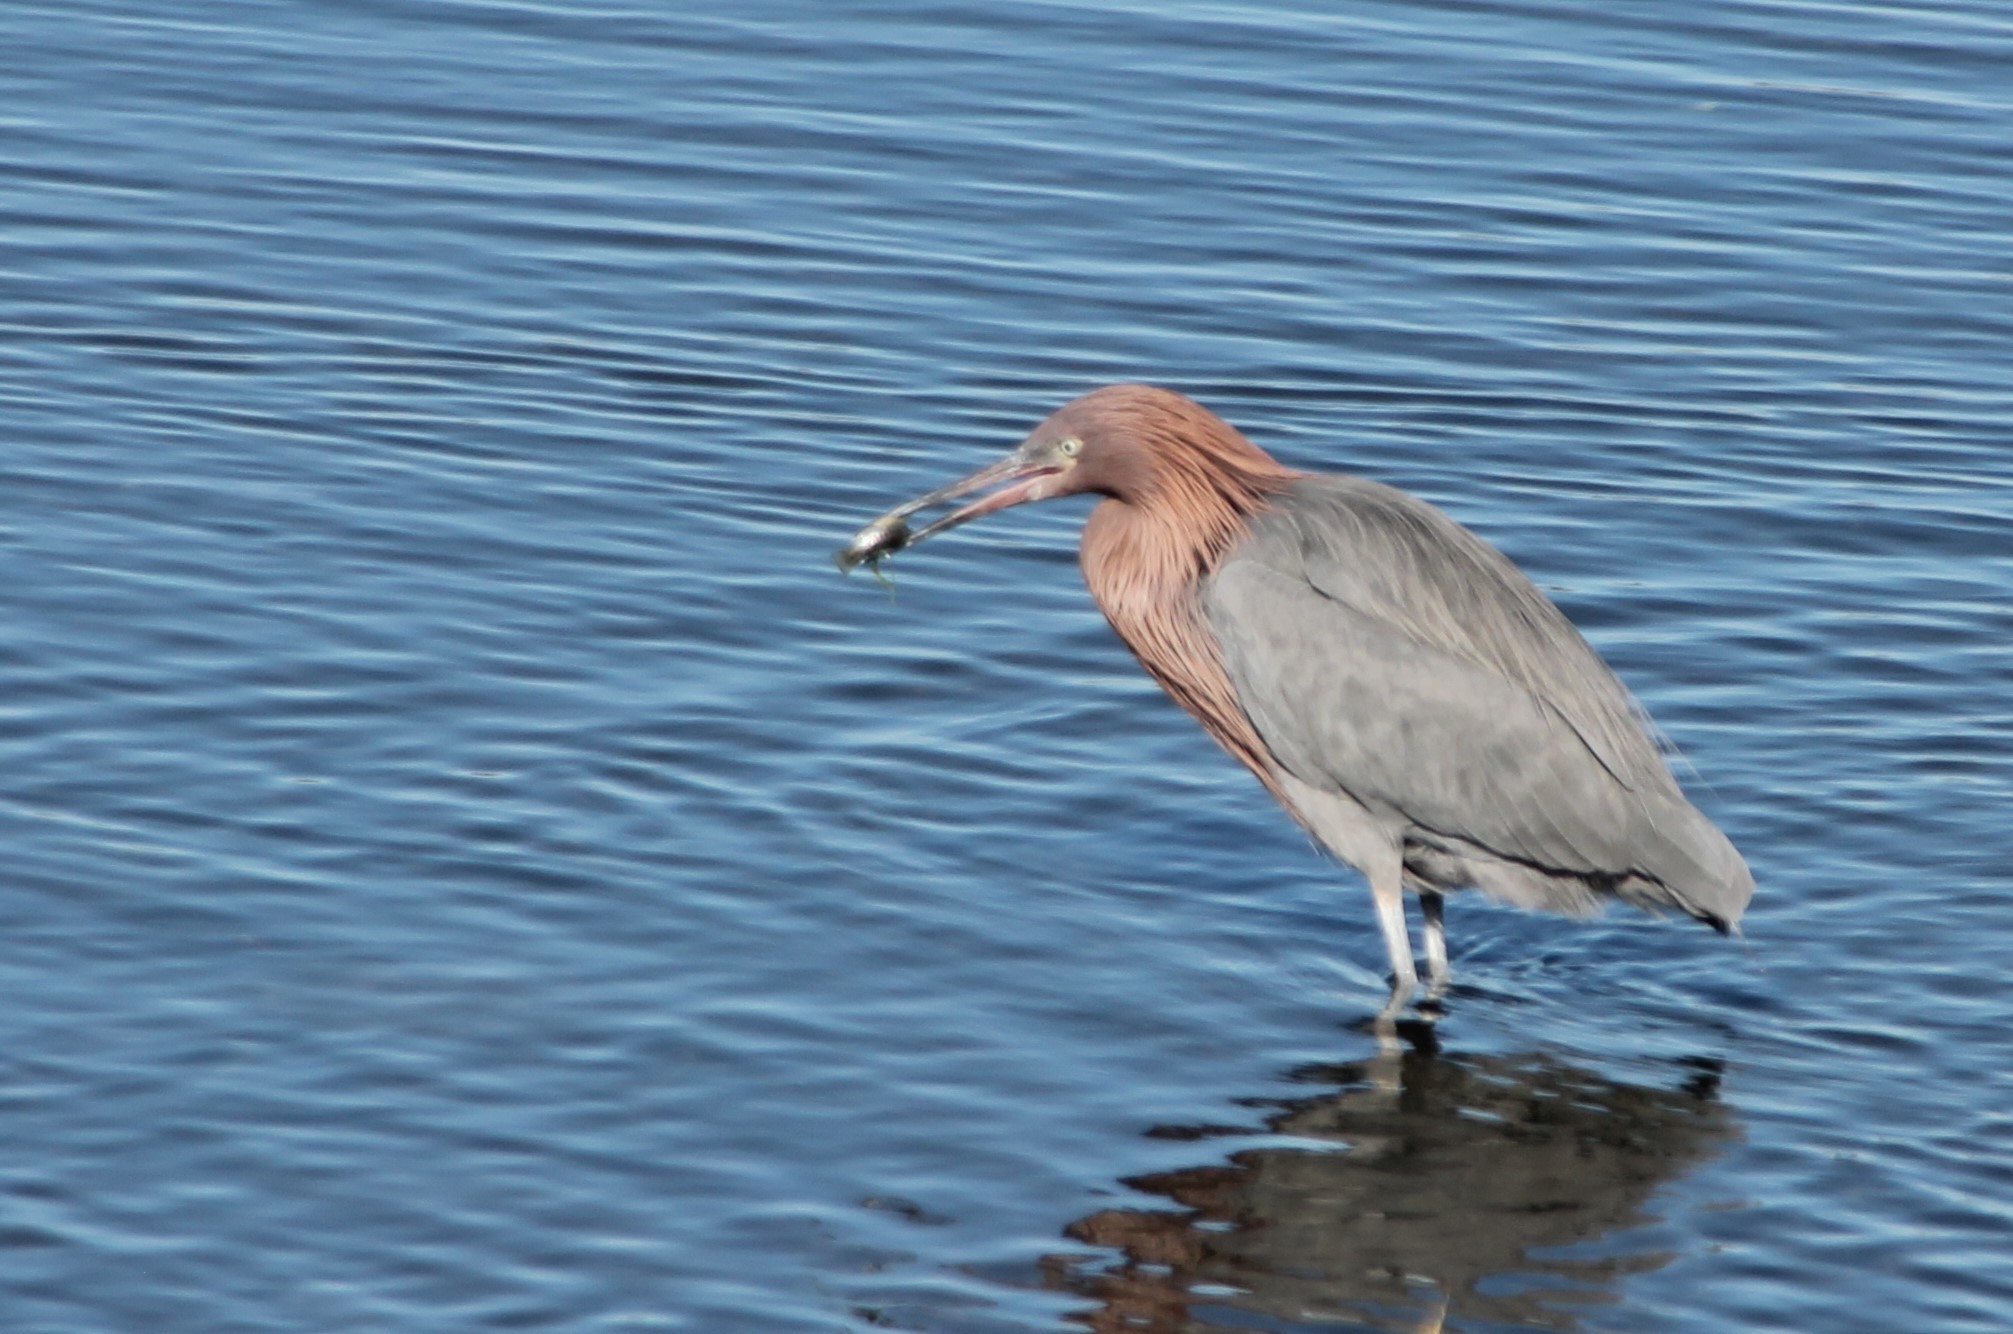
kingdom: Animalia
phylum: Chordata
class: Aves
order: Pelecaniformes
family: Ardeidae
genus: Egretta
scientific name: Egretta rufescens
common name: Reddish egret
